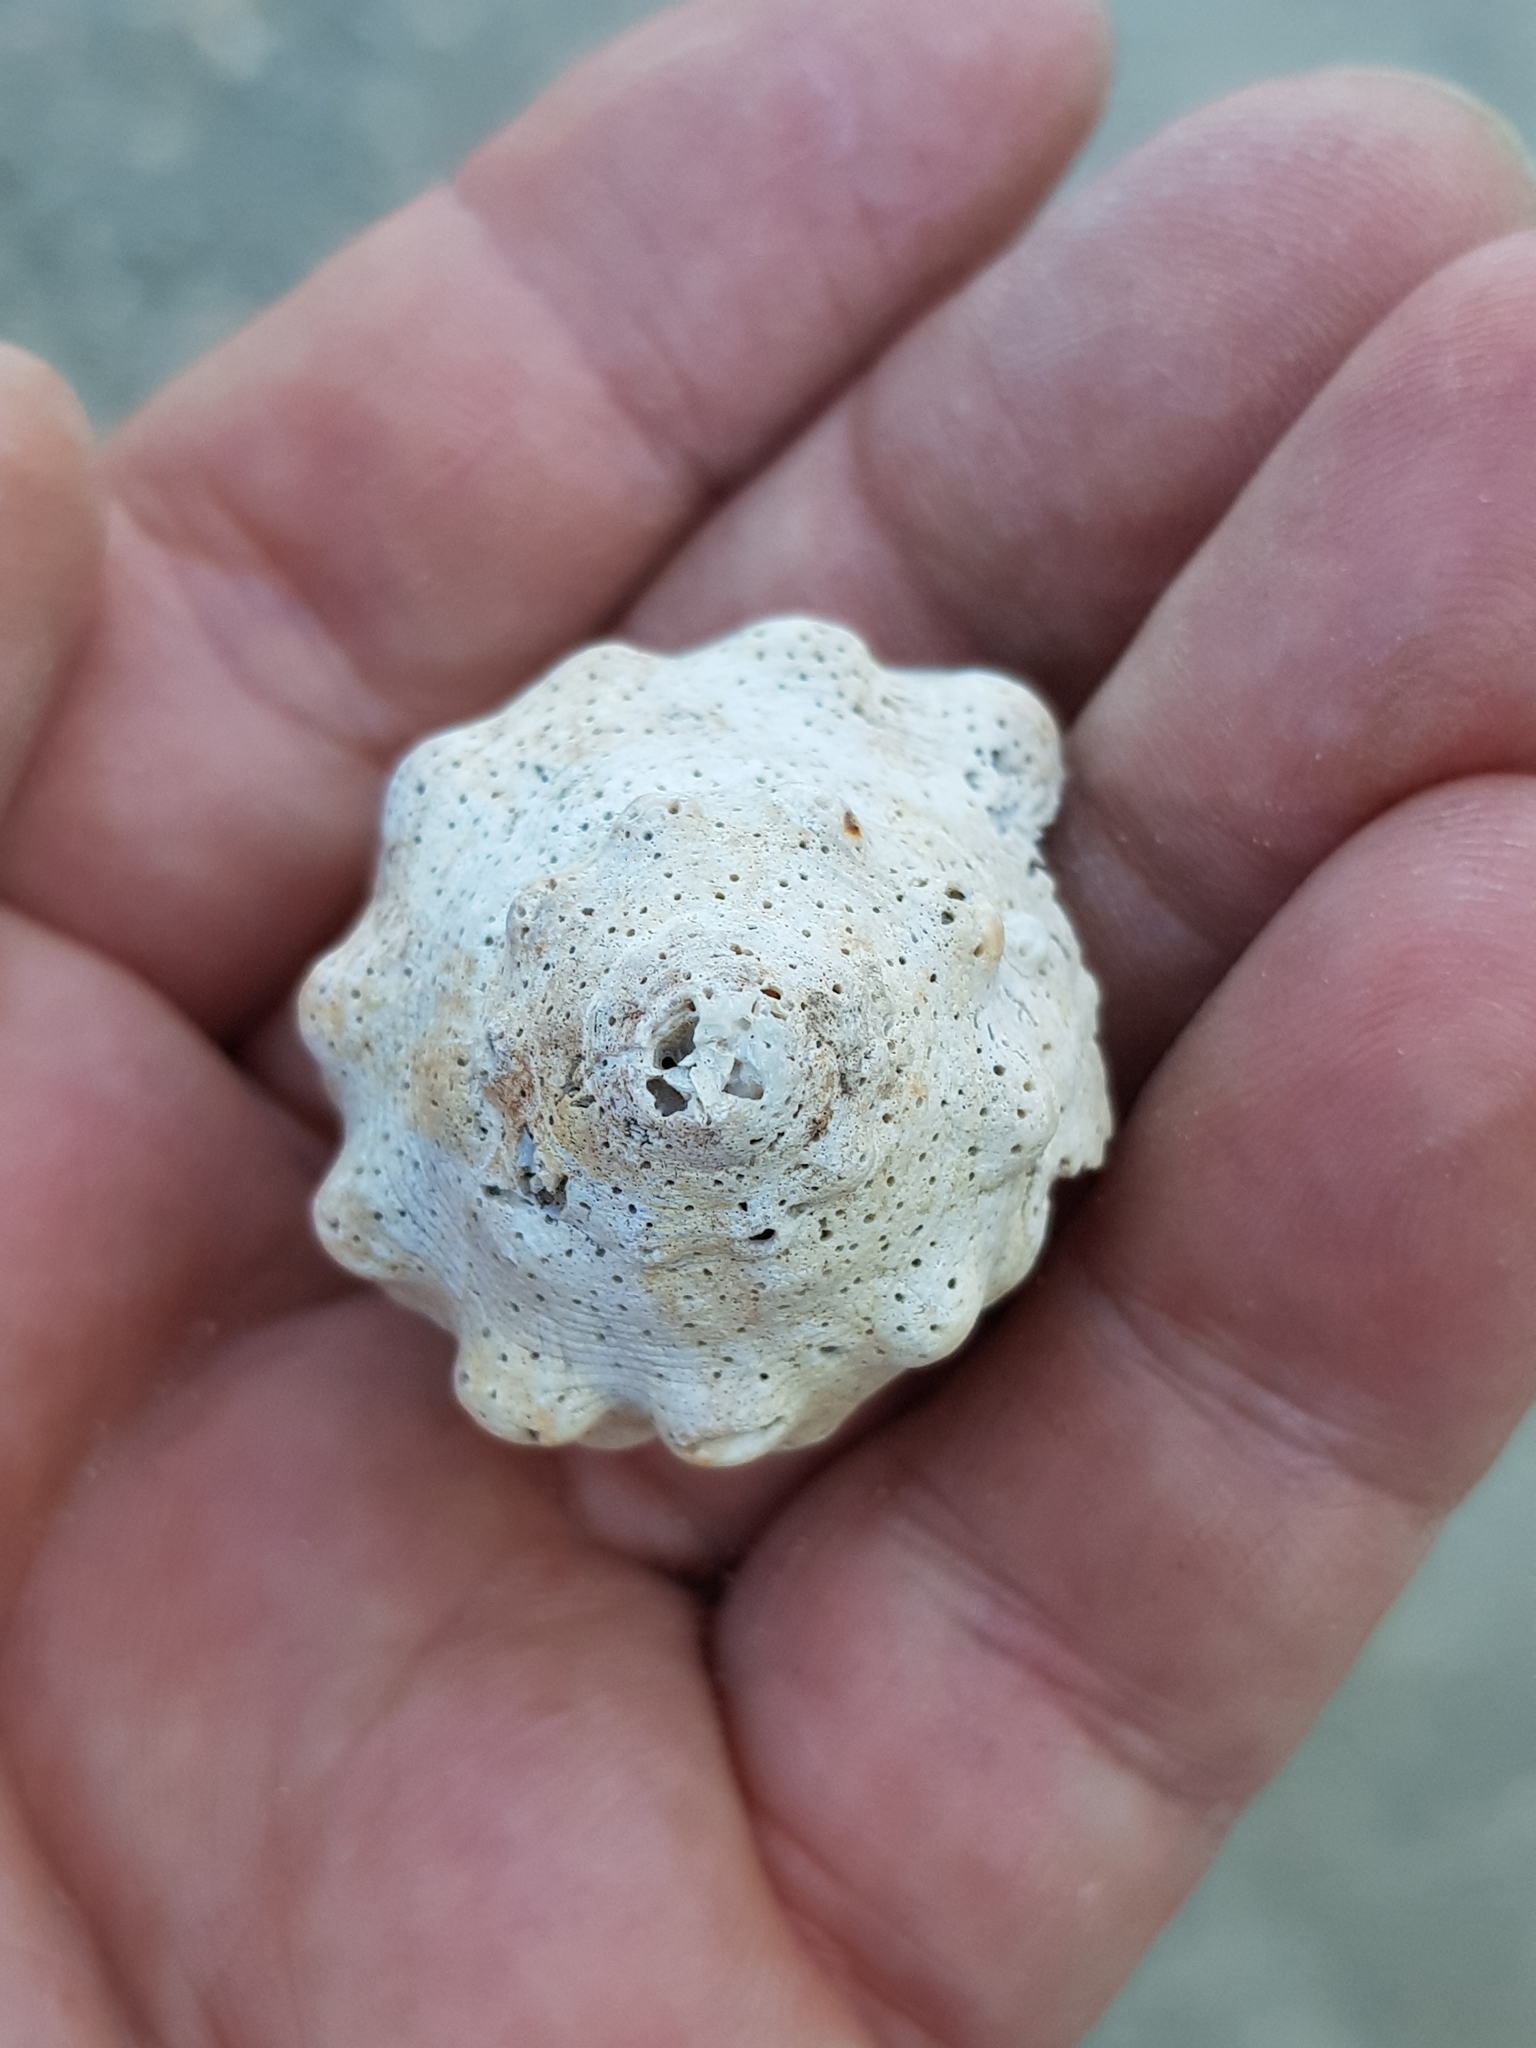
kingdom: Animalia
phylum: Mollusca
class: Gastropoda
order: Neogastropoda
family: Muricidae
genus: Stramonita
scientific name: Stramonita haemastoma
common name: Florida dog winkle
